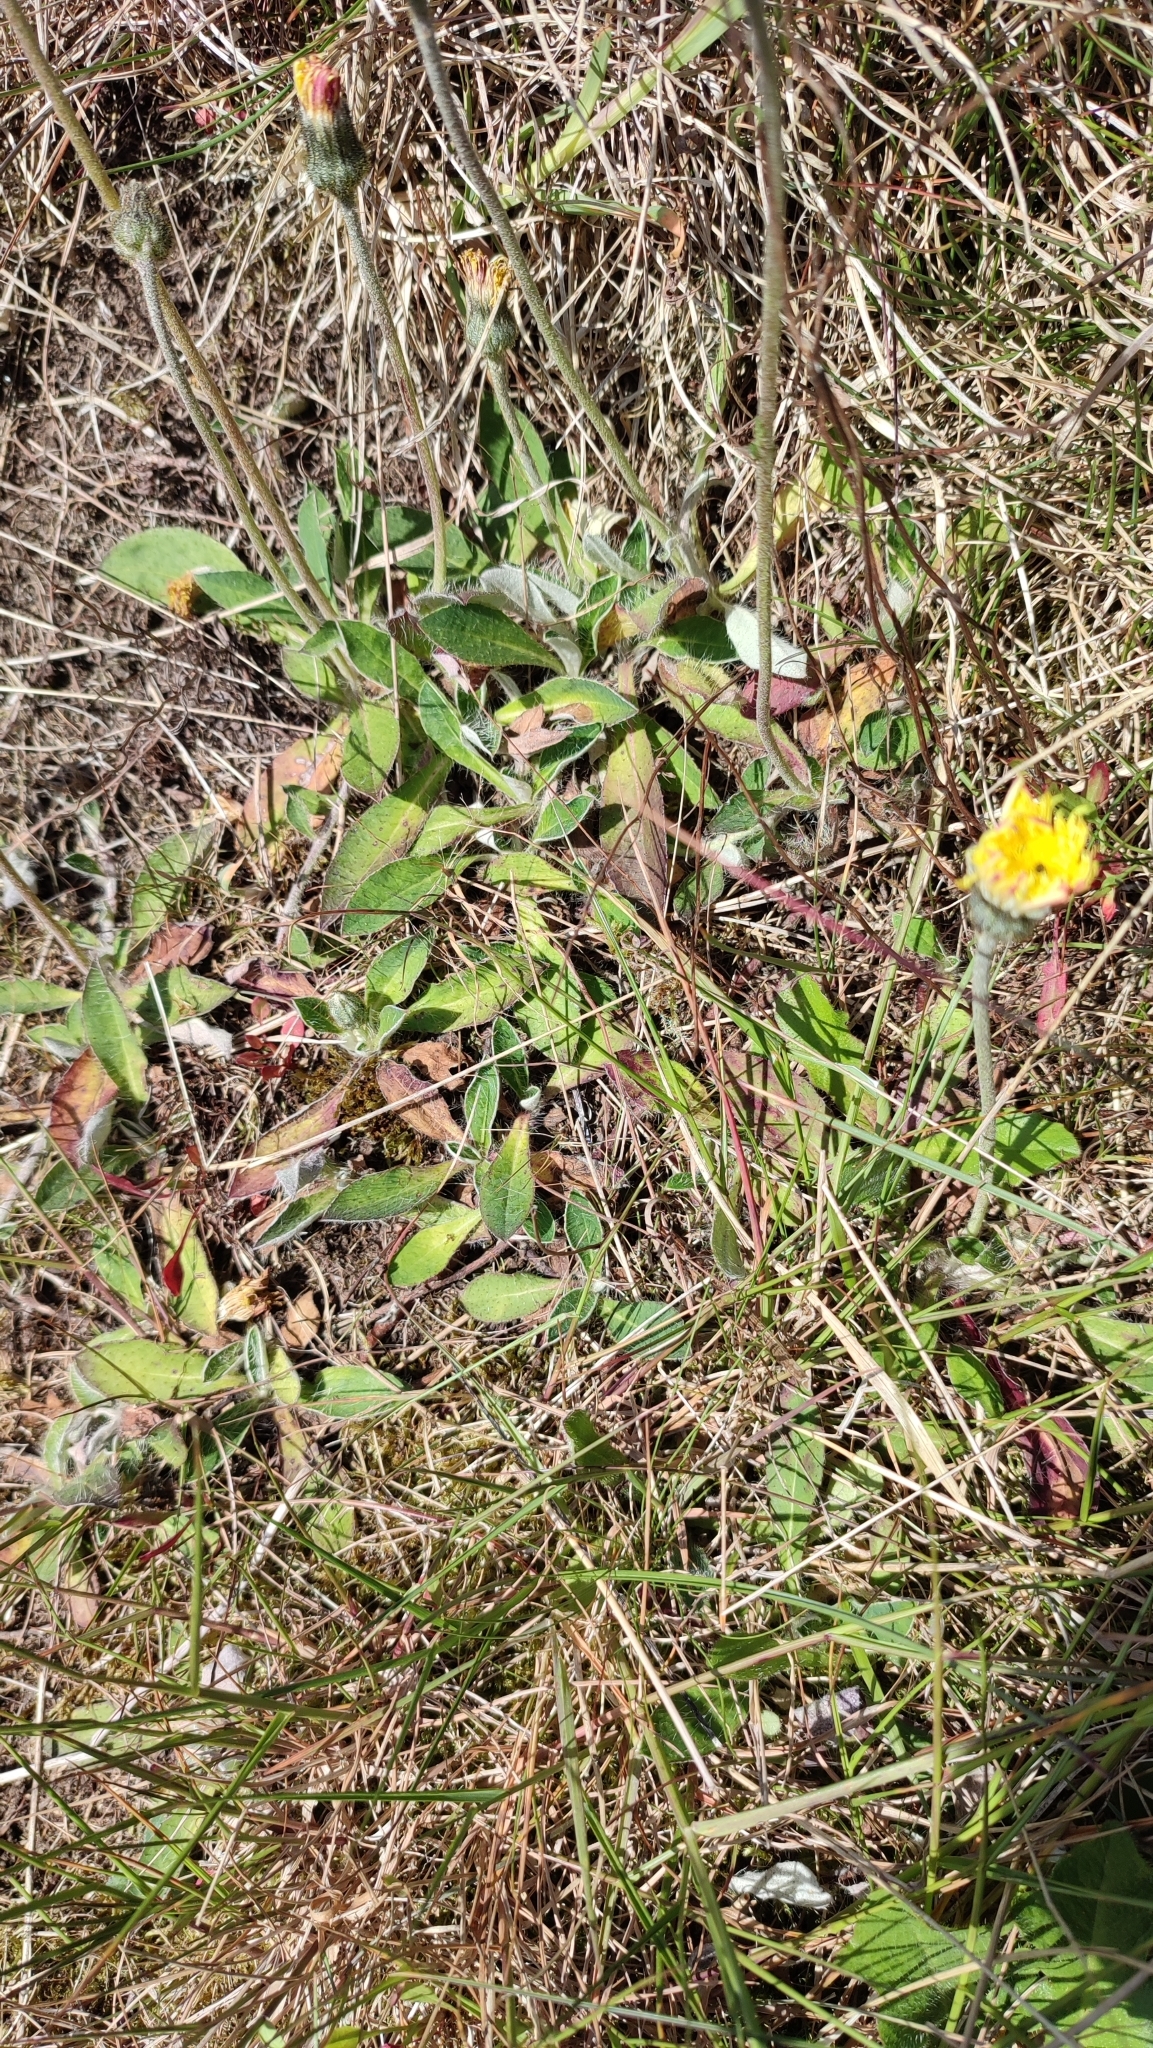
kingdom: Plantae
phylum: Tracheophyta
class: Magnoliopsida
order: Asterales
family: Asteraceae
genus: Pilosella
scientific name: Pilosella officinarum
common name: Mouse-ear hawkweed
